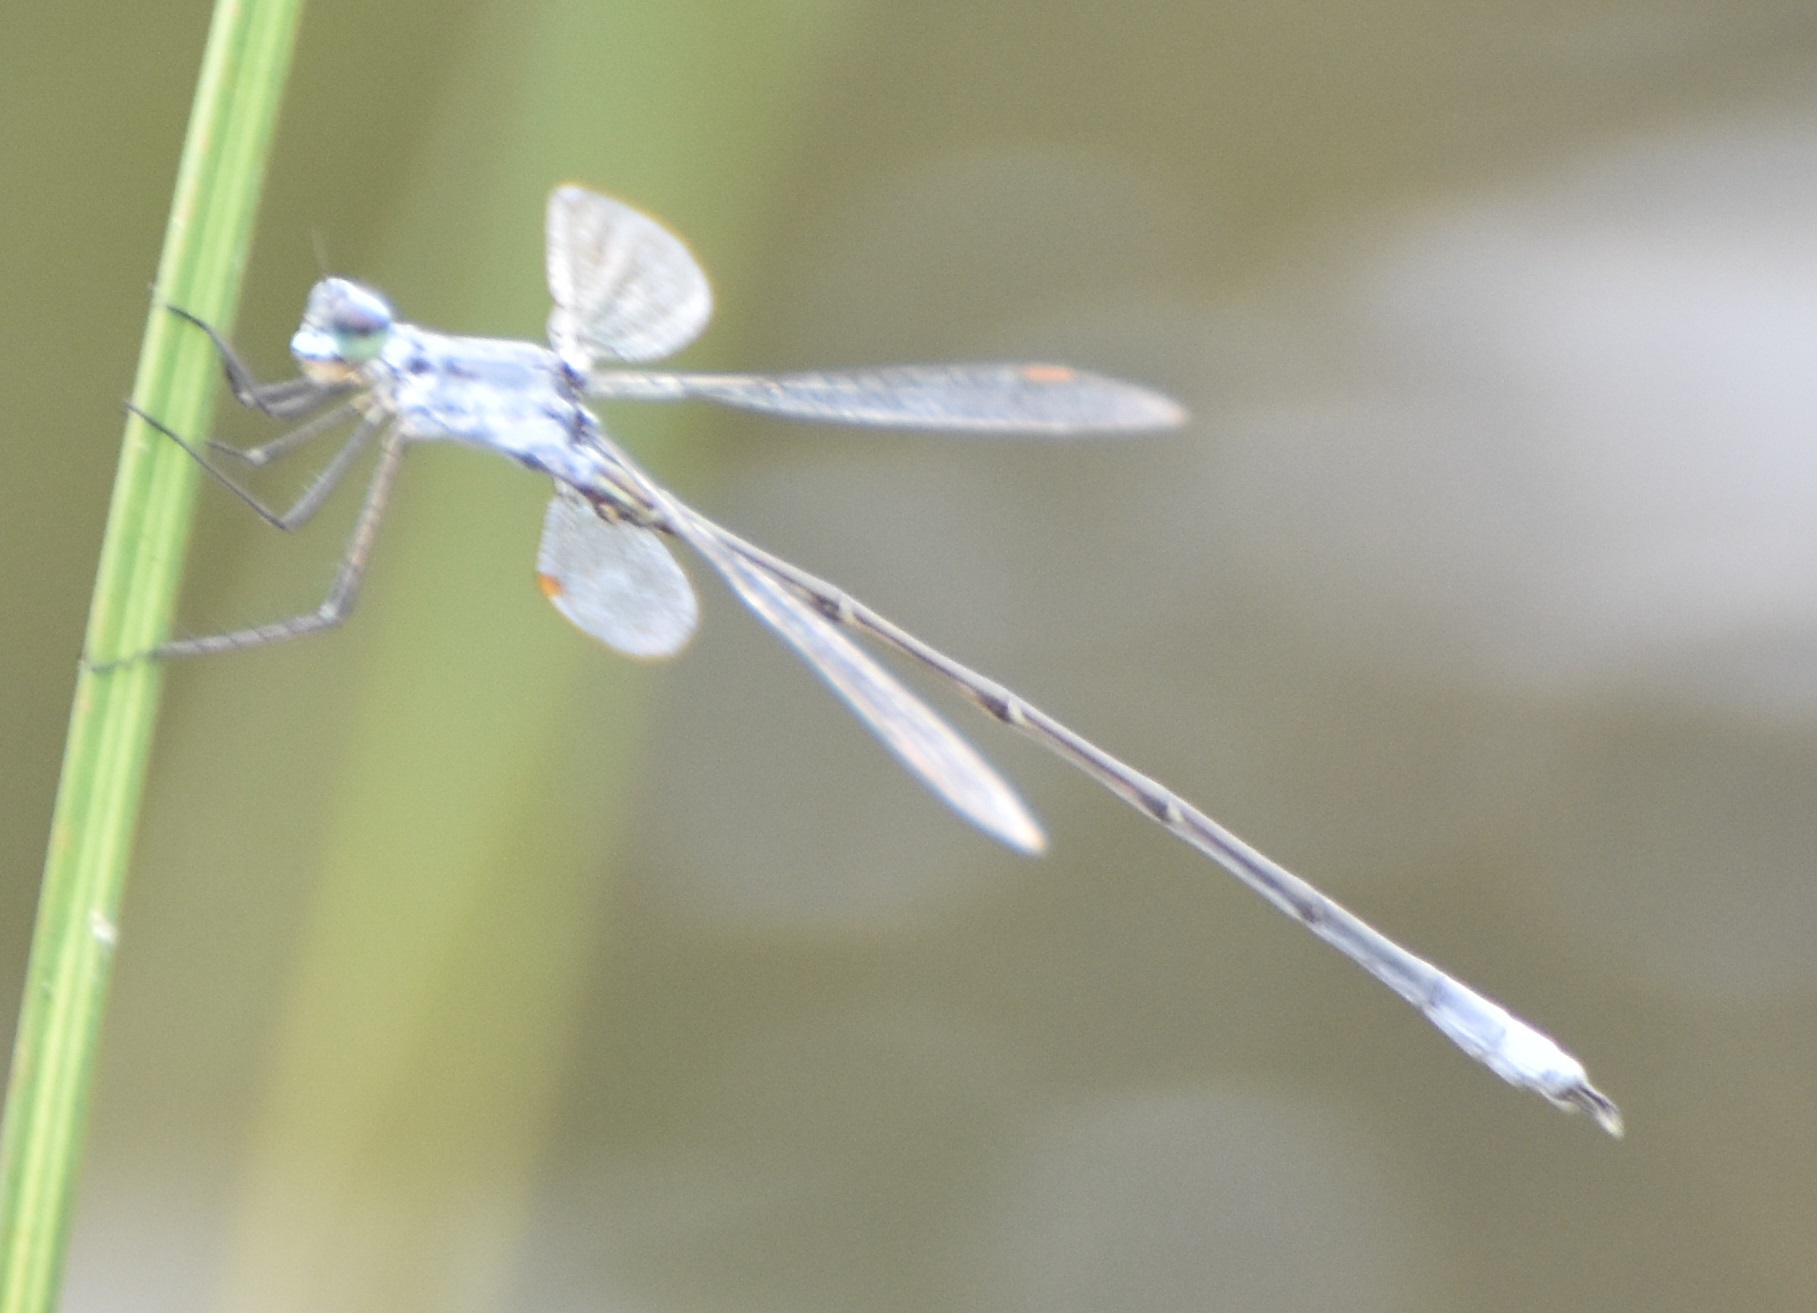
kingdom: Animalia
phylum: Arthropoda
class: Insecta
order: Odonata
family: Lestidae
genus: Lestes
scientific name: Lestes congener
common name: Spotted spreadwing
